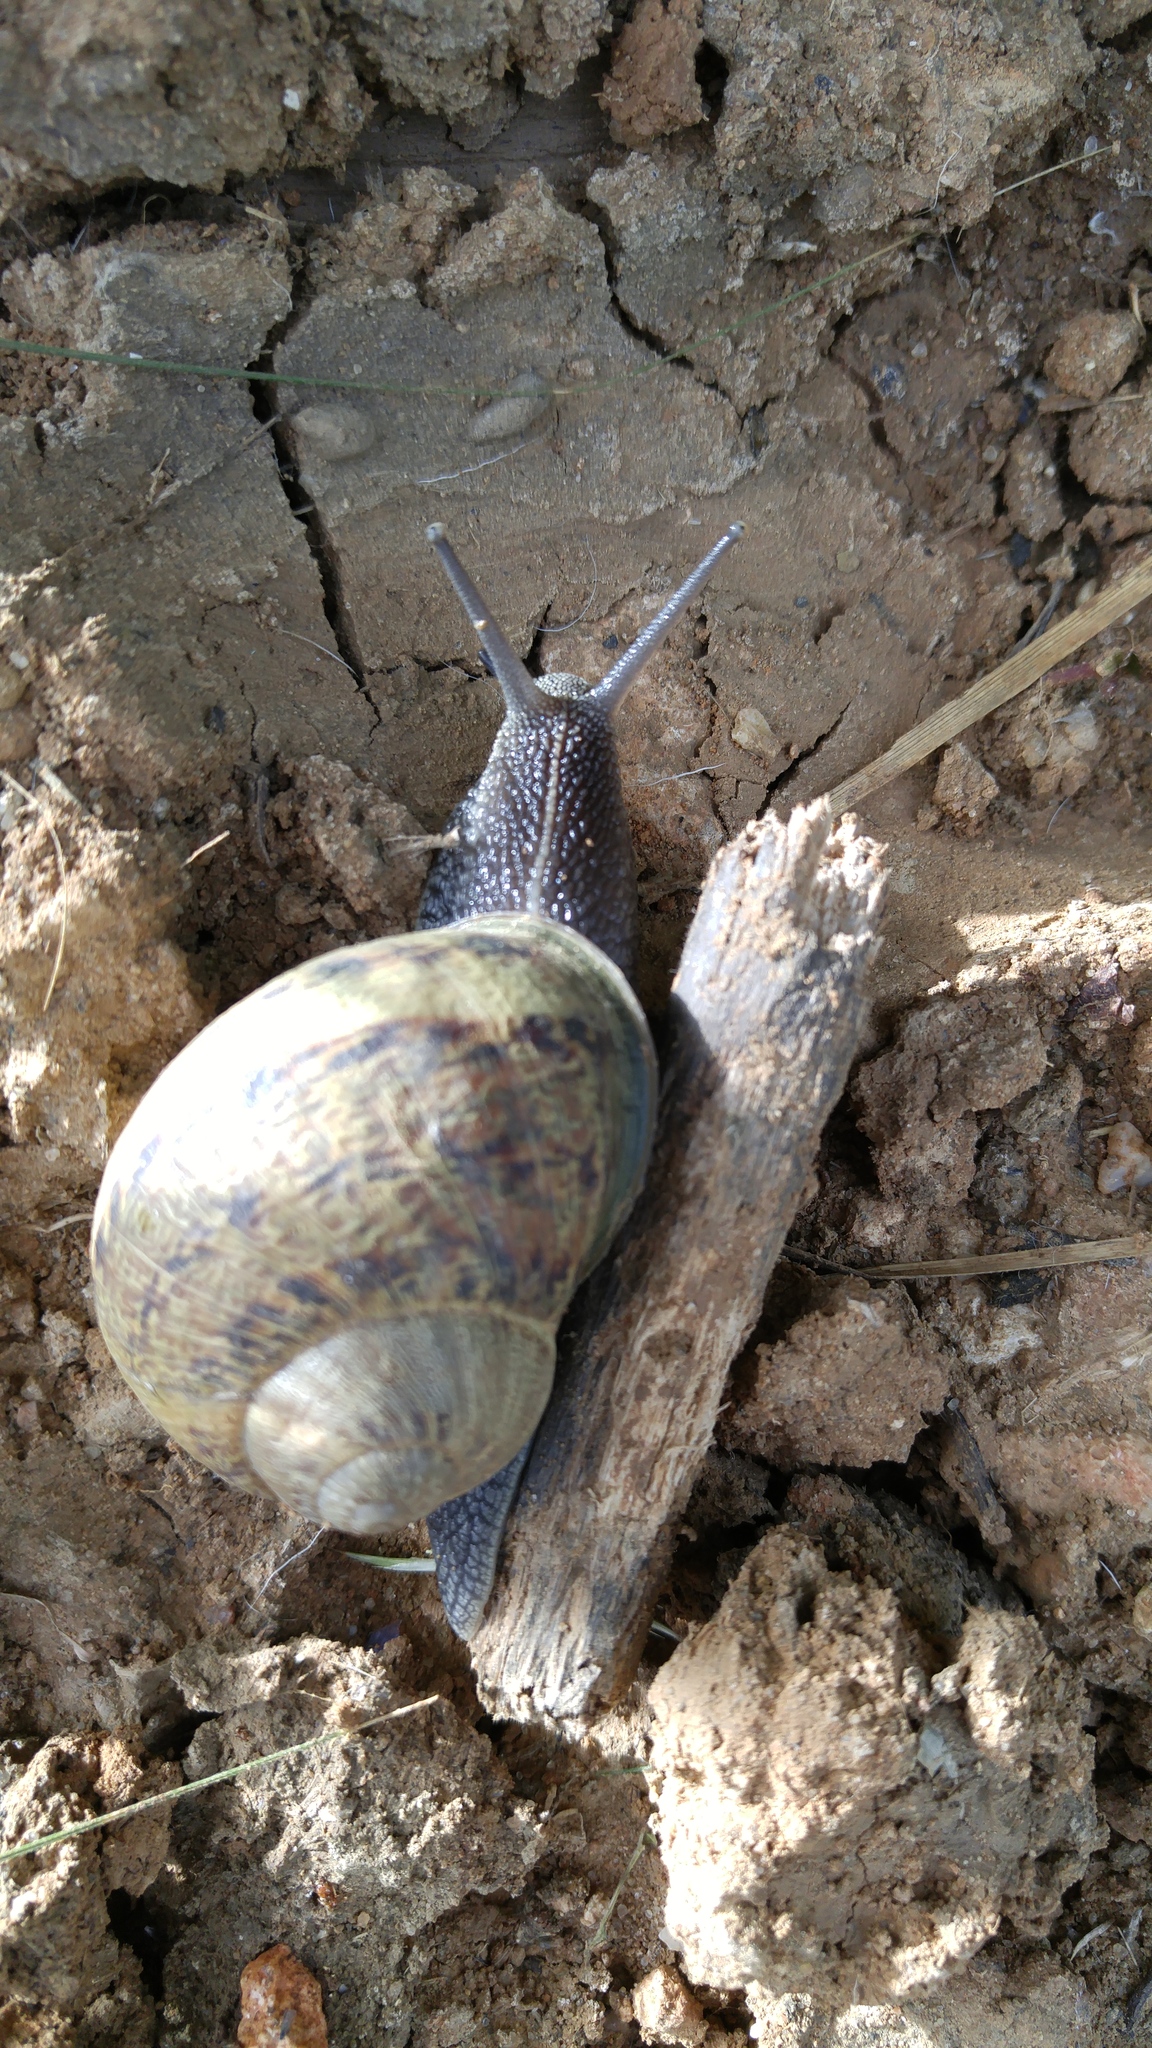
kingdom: Animalia
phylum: Mollusca
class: Gastropoda
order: Stylommatophora
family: Helicidae
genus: Cornu
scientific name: Cornu aspersum
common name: Brown garden snail
